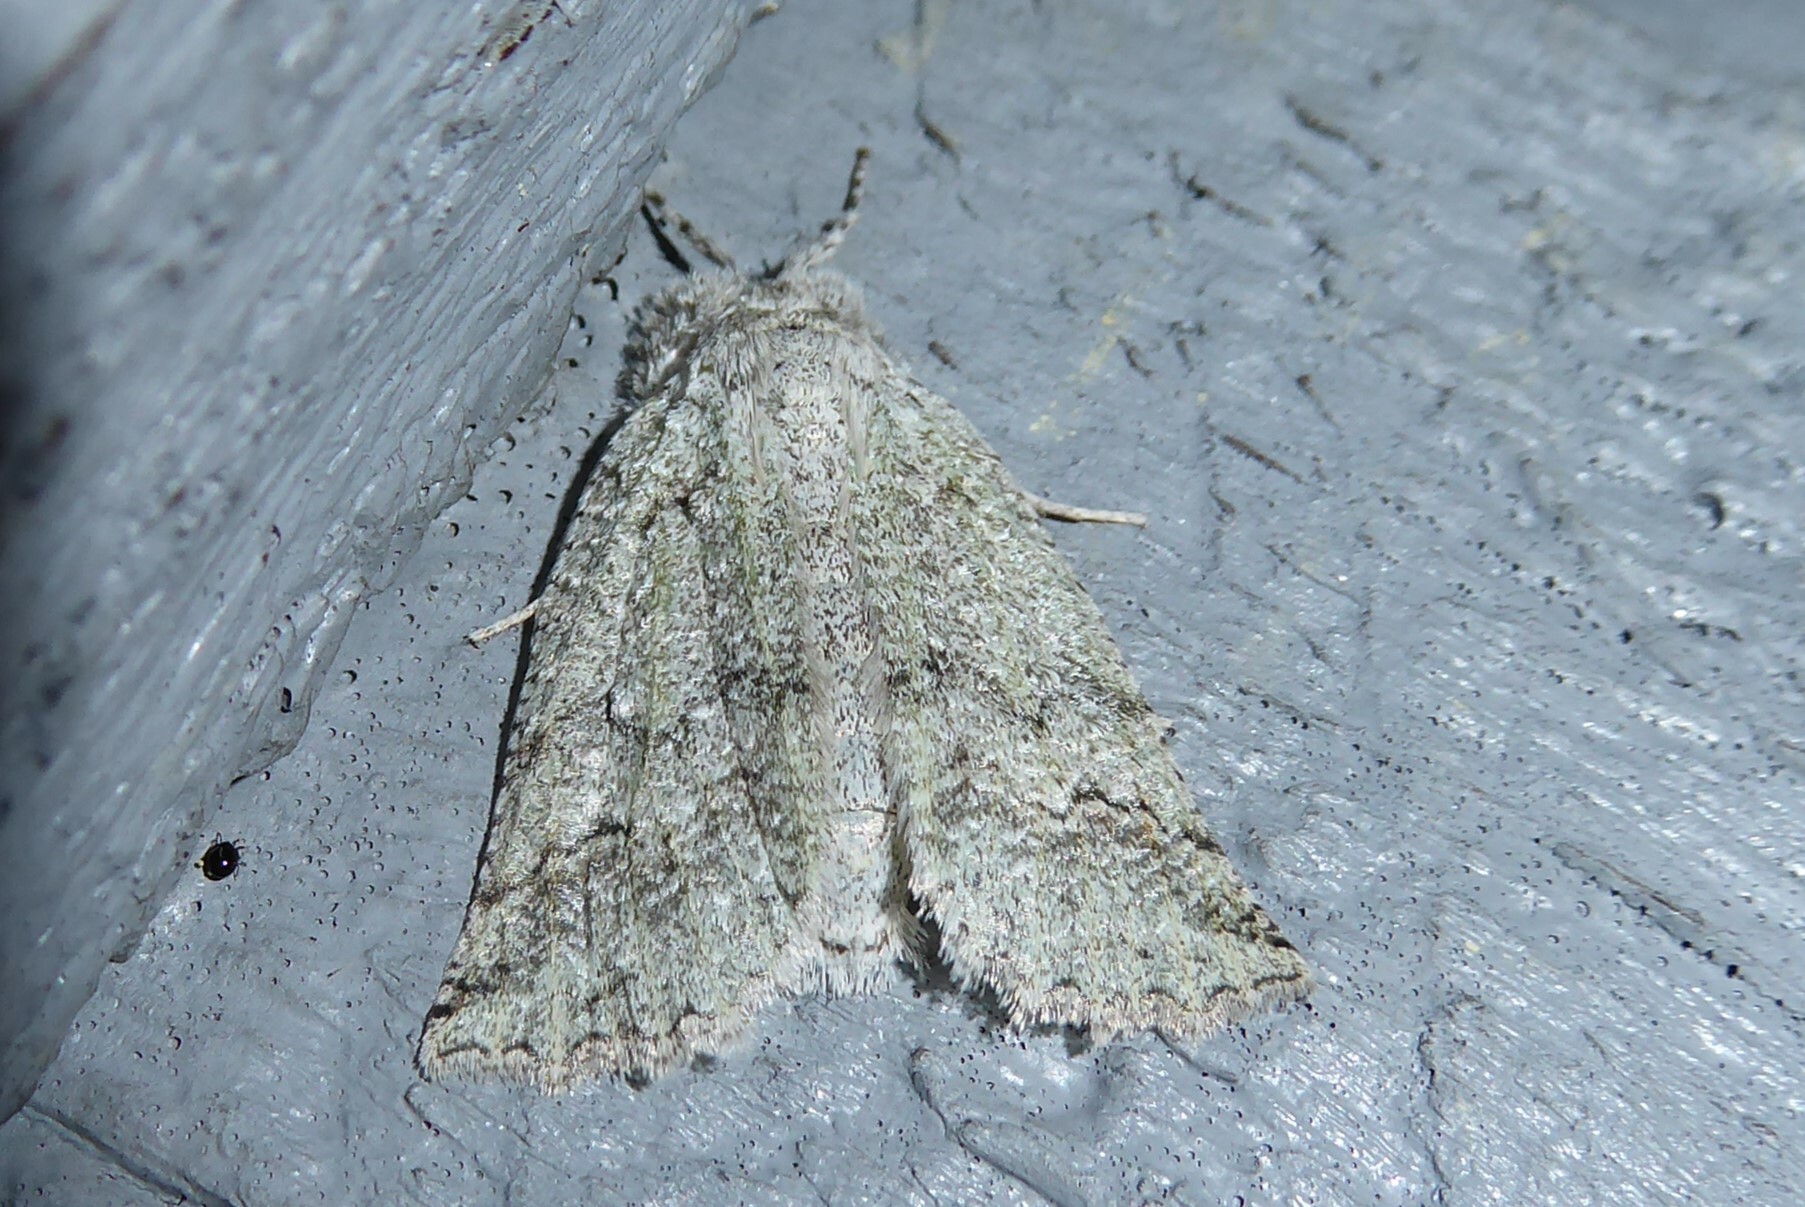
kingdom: Animalia
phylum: Arthropoda
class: Insecta
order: Lepidoptera
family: Geometridae
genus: Declana
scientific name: Declana floccosa
